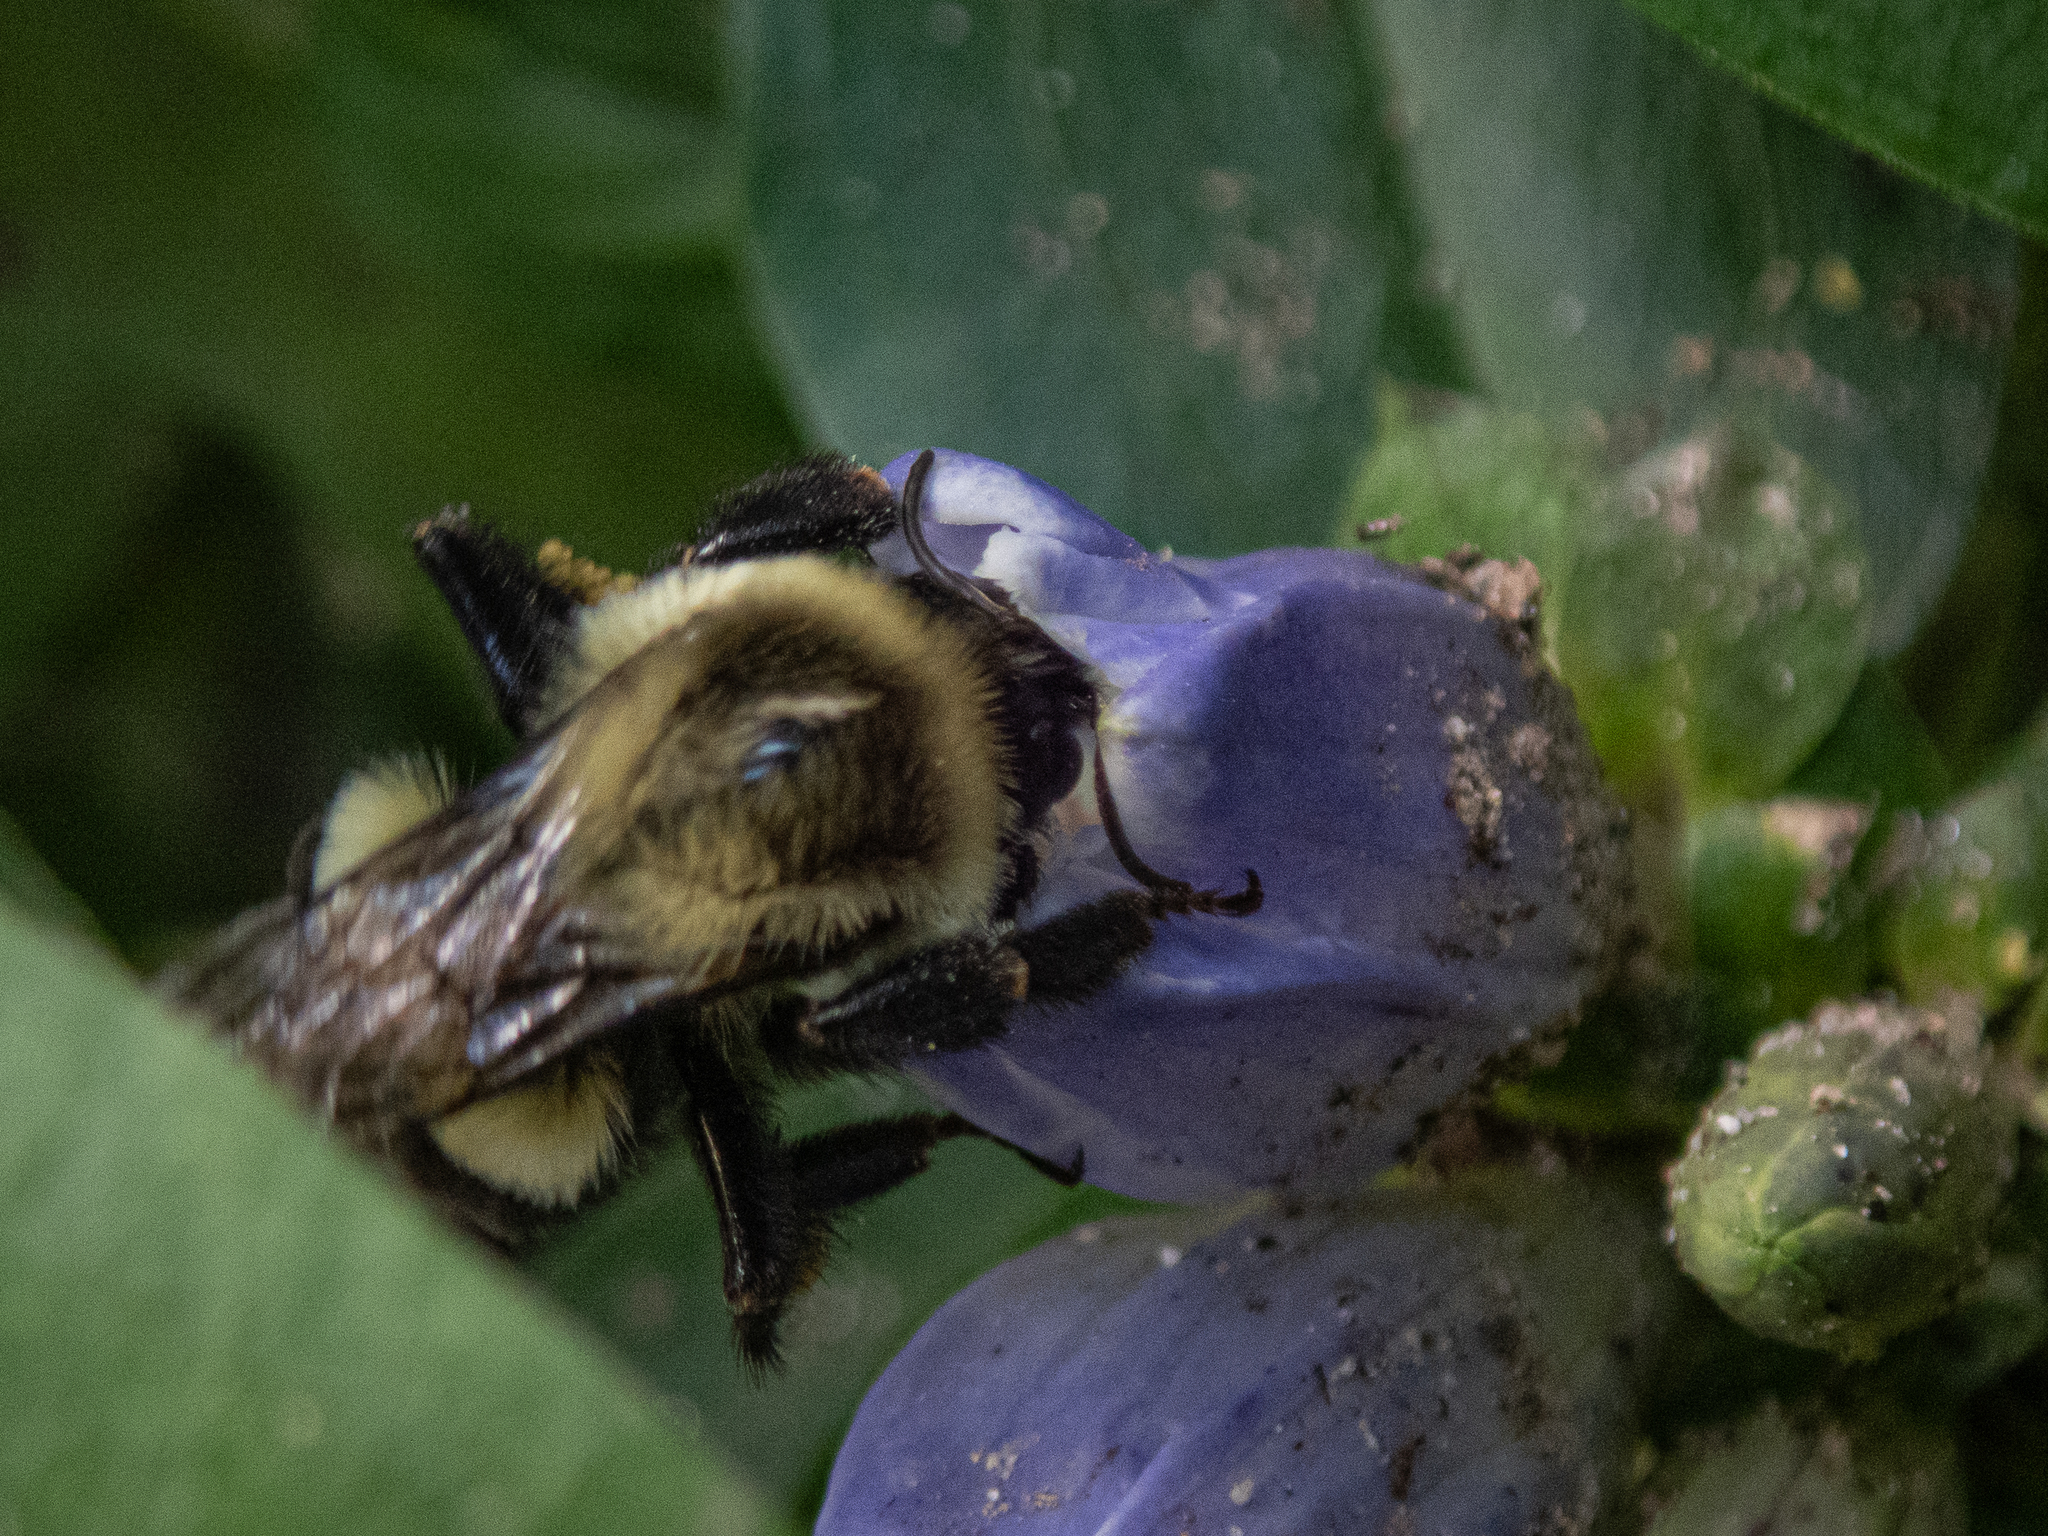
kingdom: Animalia
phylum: Arthropoda
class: Insecta
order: Hymenoptera
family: Apidae
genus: Bombus
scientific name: Bombus impatiens
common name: Common eastern bumble bee
